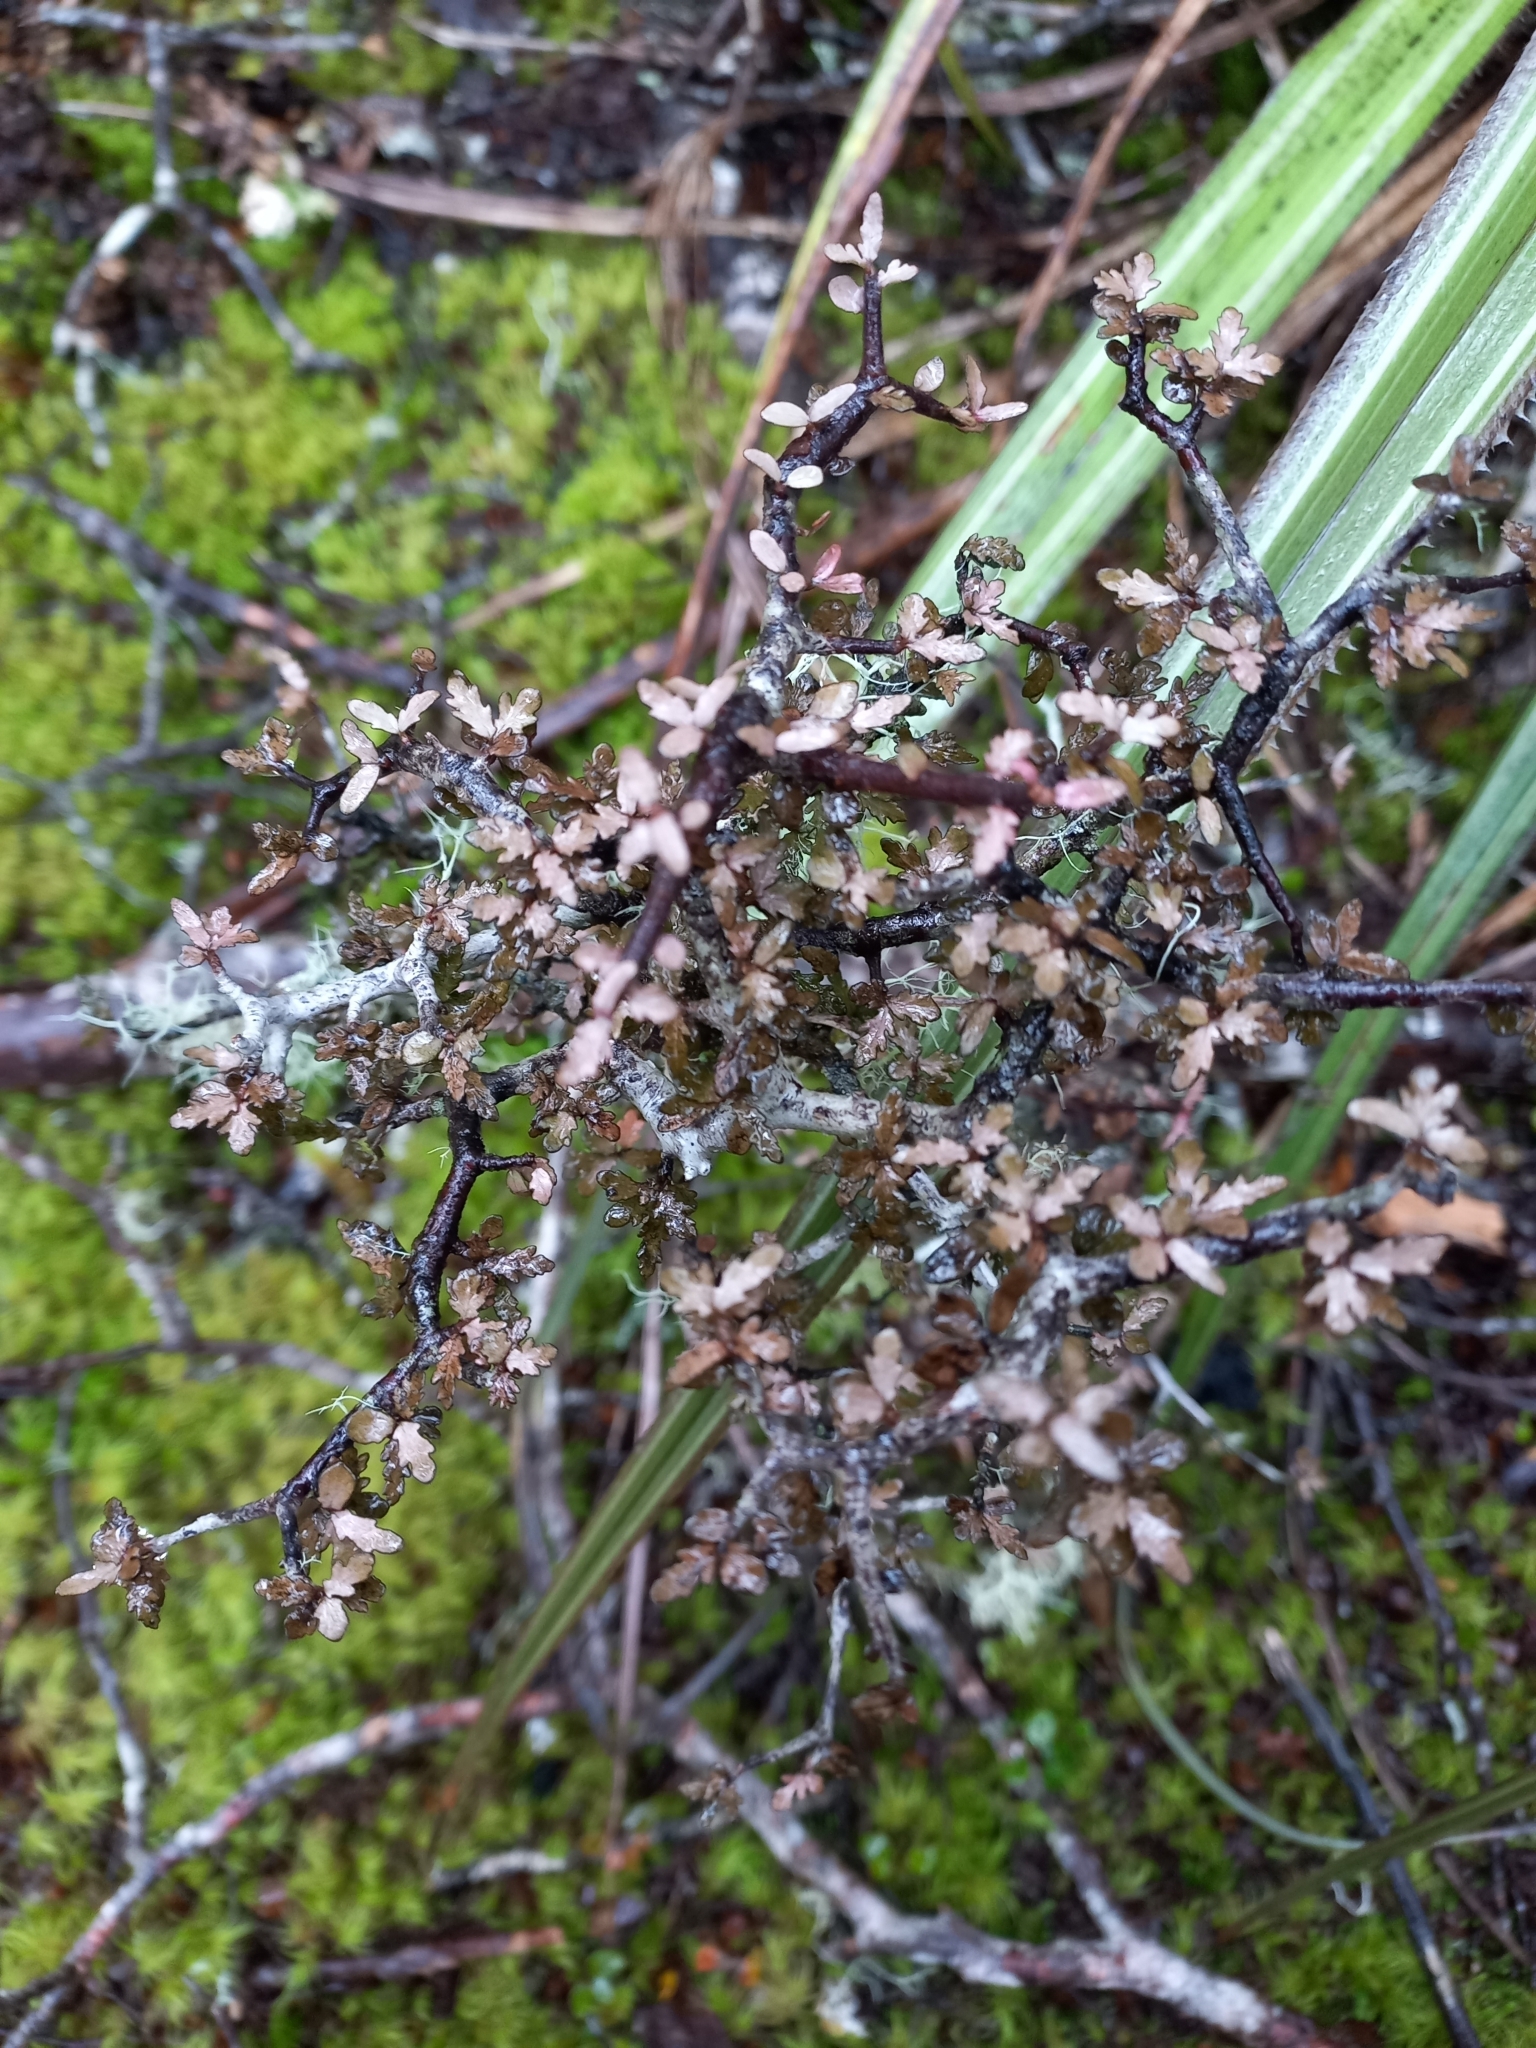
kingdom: Plantae
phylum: Tracheophyta
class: Magnoliopsida
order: Apiales
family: Pittosporaceae
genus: Pittosporum
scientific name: Pittosporum divaricatum
